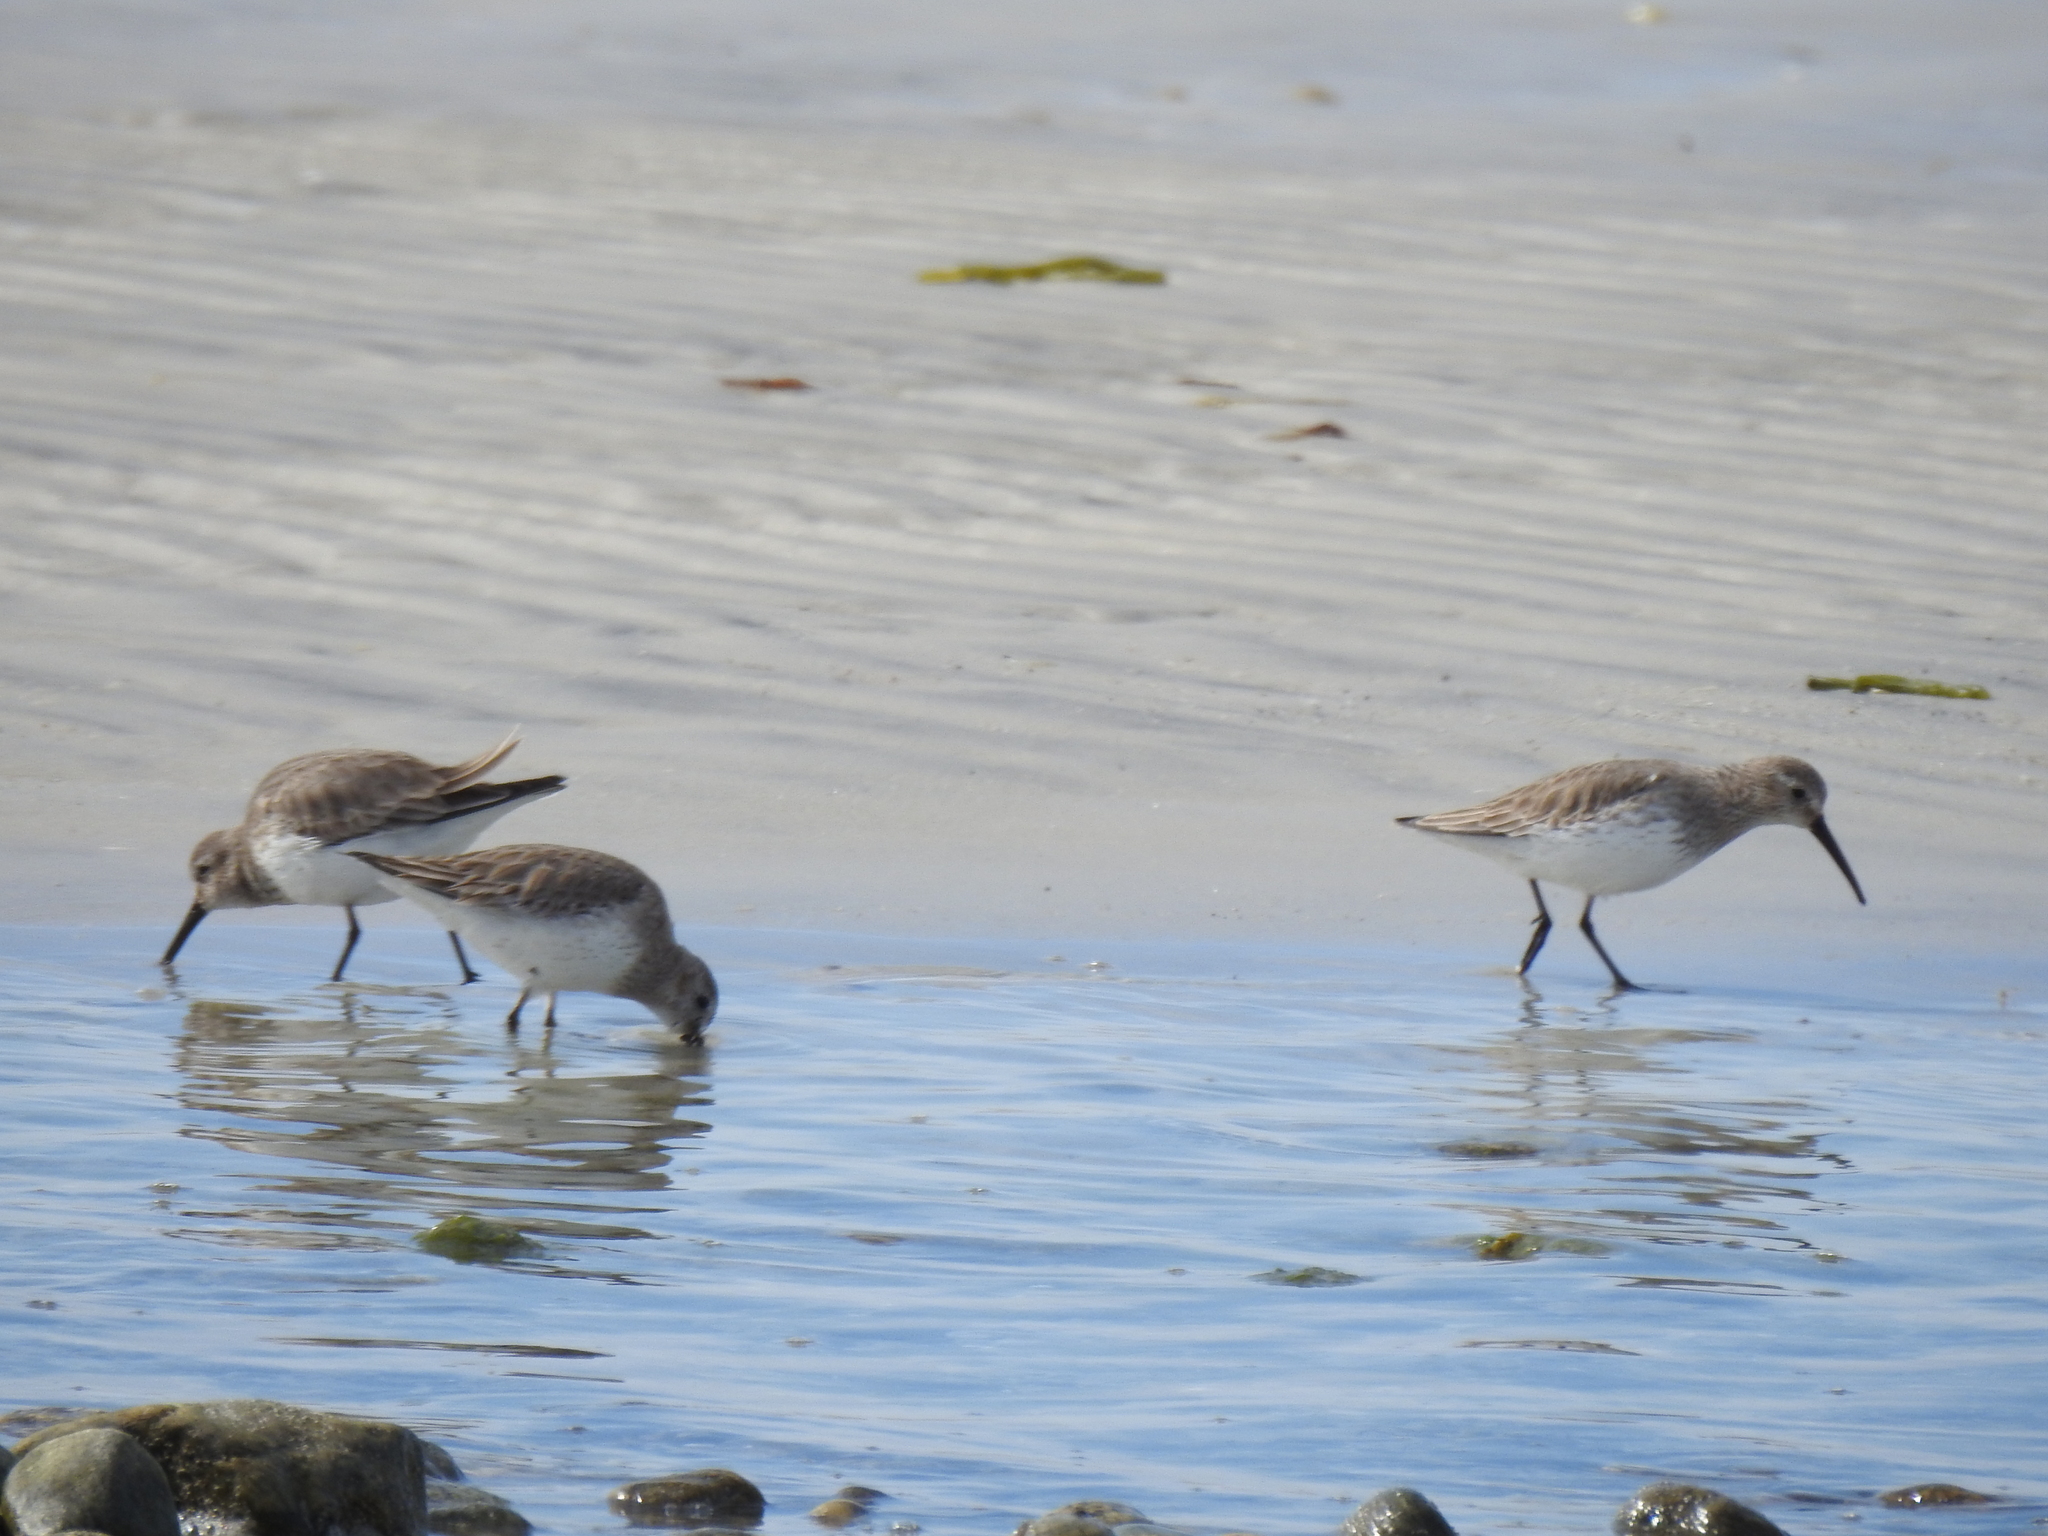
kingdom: Animalia
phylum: Chordata
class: Aves
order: Charadriiformes
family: Scolopacidae
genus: Calidris
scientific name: Calidris alpina
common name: Dunlin
